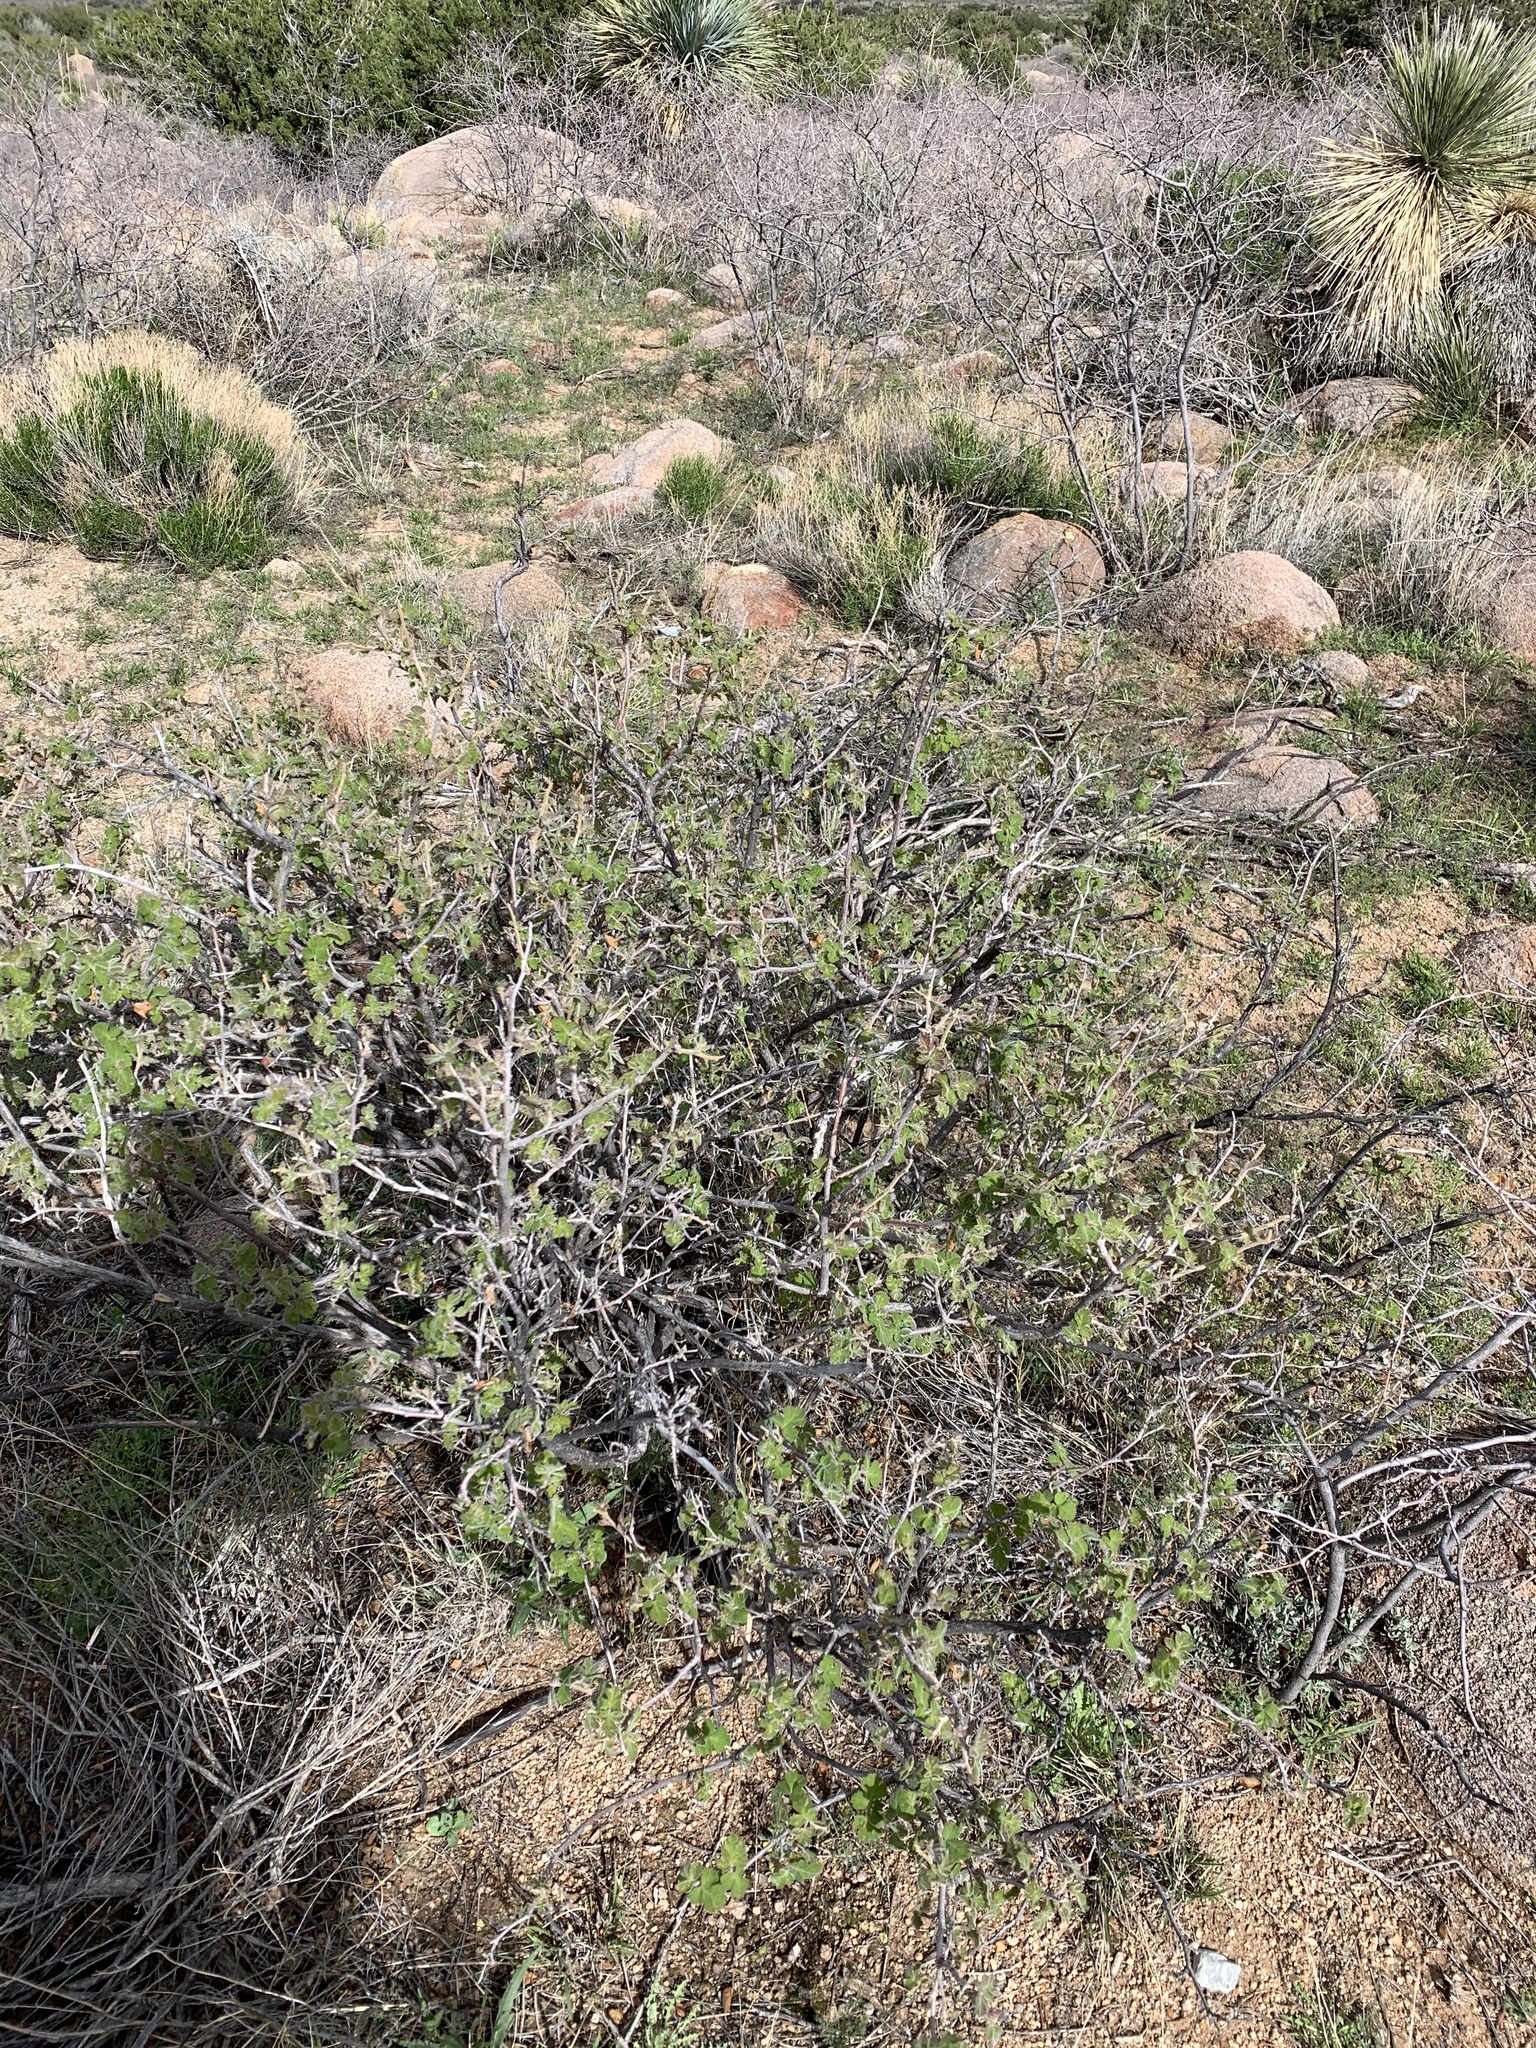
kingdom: Plantae
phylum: Tracheophyta
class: Magnoliopsida
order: Sapindales
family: Anacardiaceae
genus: Rhus
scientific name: Rhus aromatica
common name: Aromatic sumac
